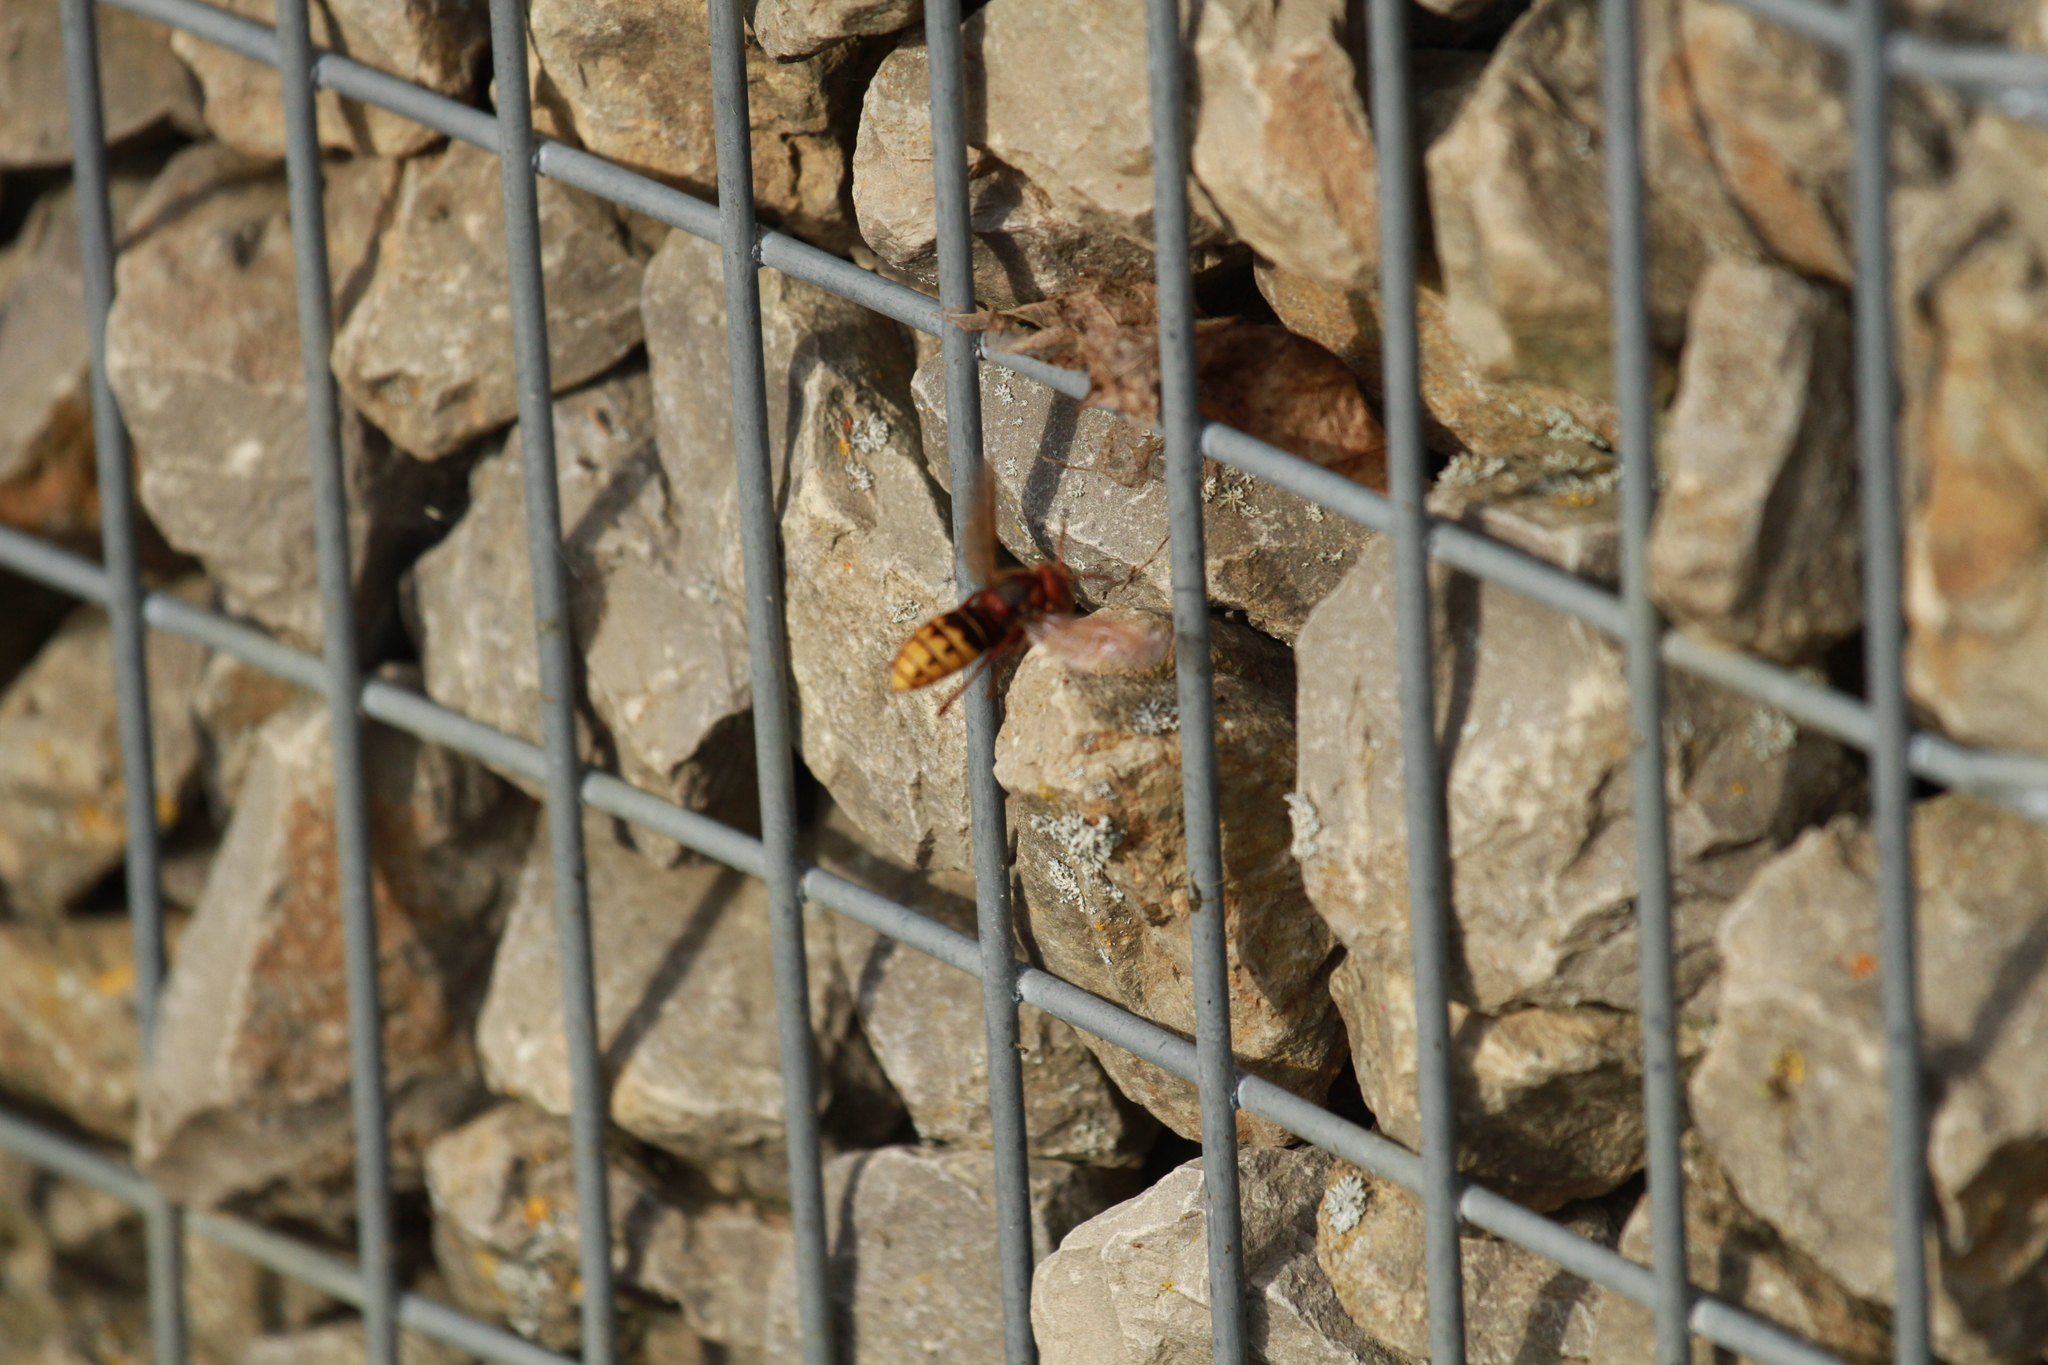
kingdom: Animalia
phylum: Arthropoda
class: Insecta
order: Hymenoptera
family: Vespidae
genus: Vespa
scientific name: Vespa crabro
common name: Hornet
